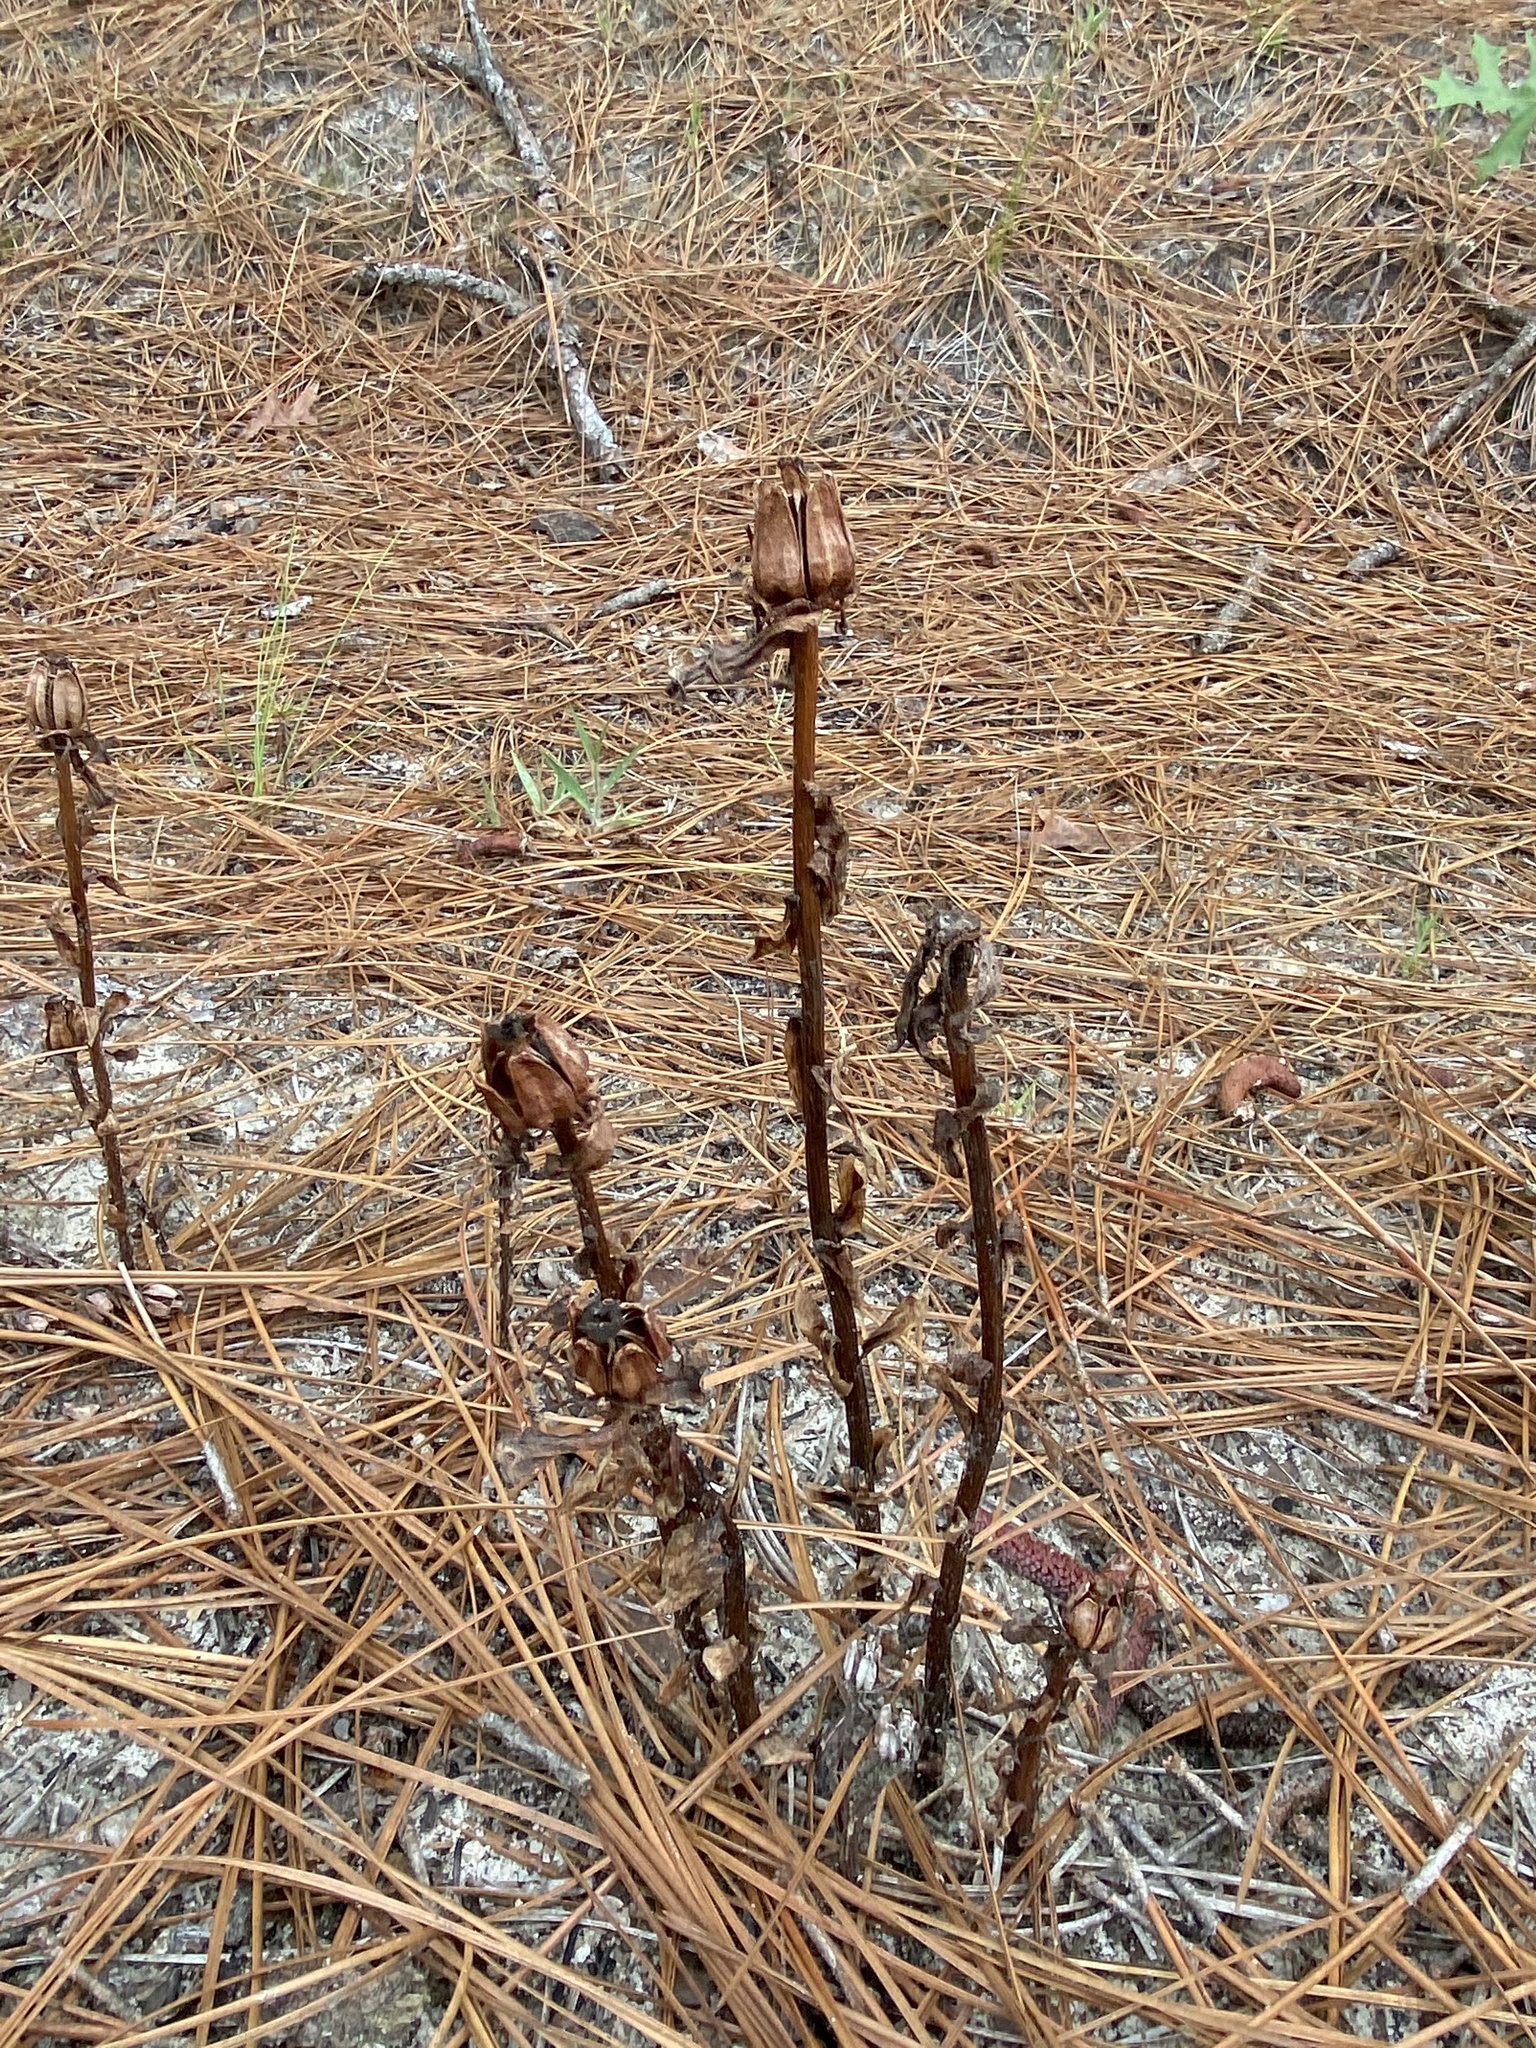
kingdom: Plantae
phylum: Tracheophyta
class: Magnoliopsida
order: Ericales
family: Ericaceae
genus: Monotropa
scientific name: Monotropa uniflora
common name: Convulsion root
